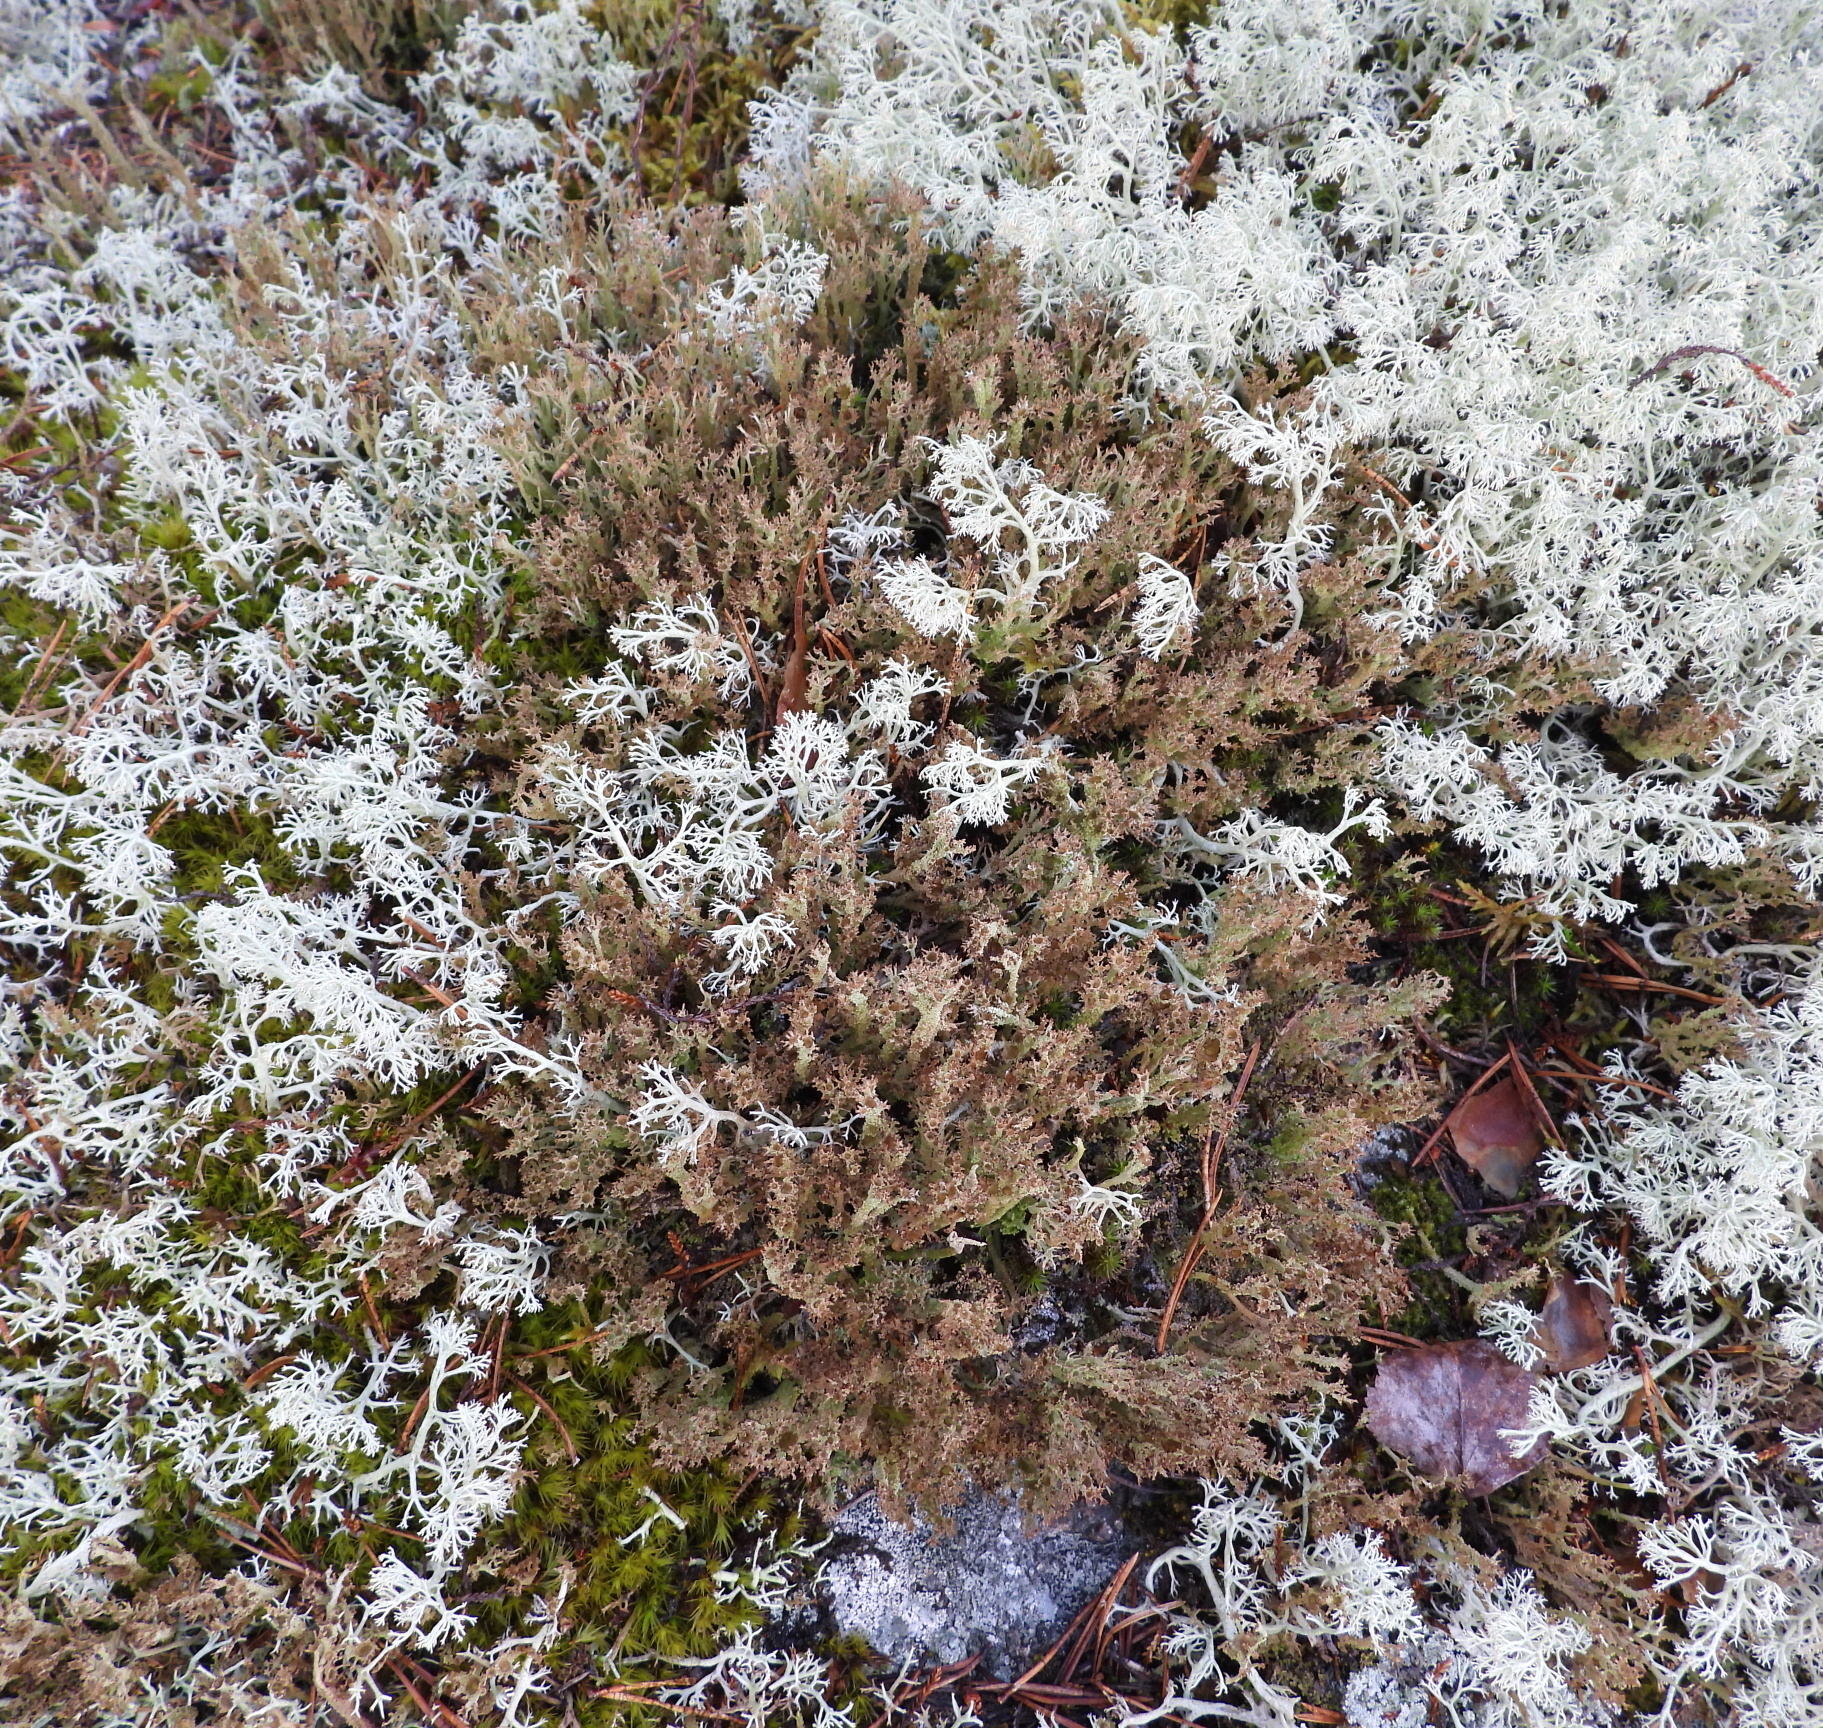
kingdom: Fungi
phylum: Ascomycota
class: Lecanoromycetes
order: Lecanorales
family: Cladoniaceae
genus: Cladonia
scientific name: Cladonia crispata
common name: Organ-pipe lichen
